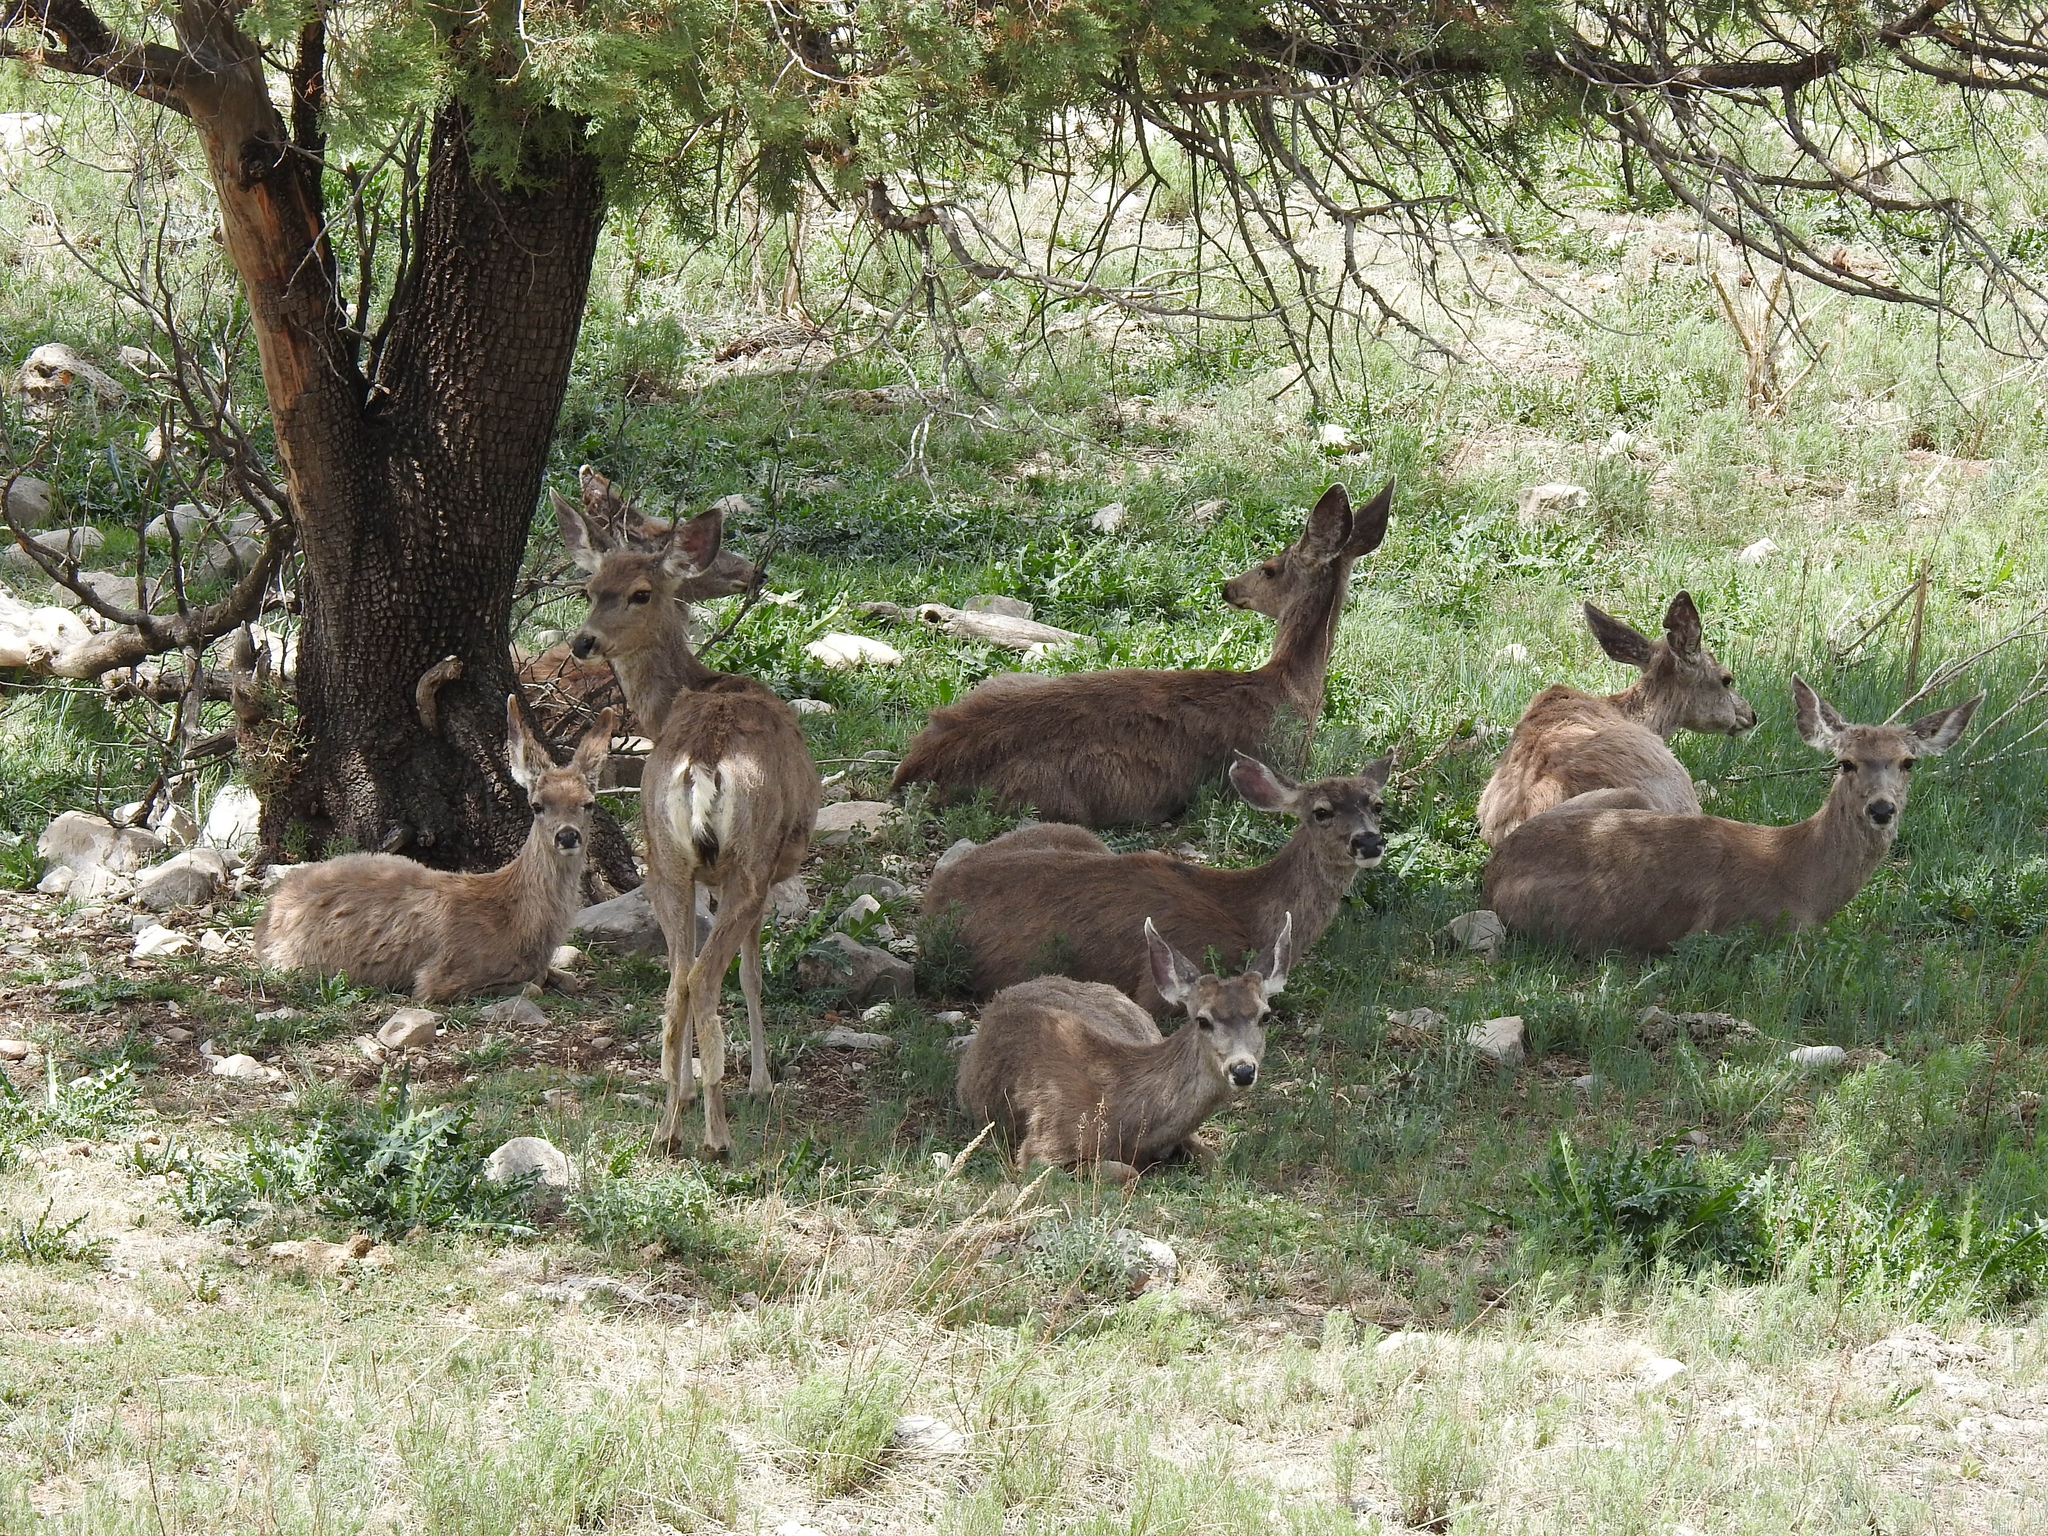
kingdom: Animalia
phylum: Chordata
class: Mammalia
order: Artiodactyla
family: Cervidae
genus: Odocoileus
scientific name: Odocoileus hemionus
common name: Mule deer
